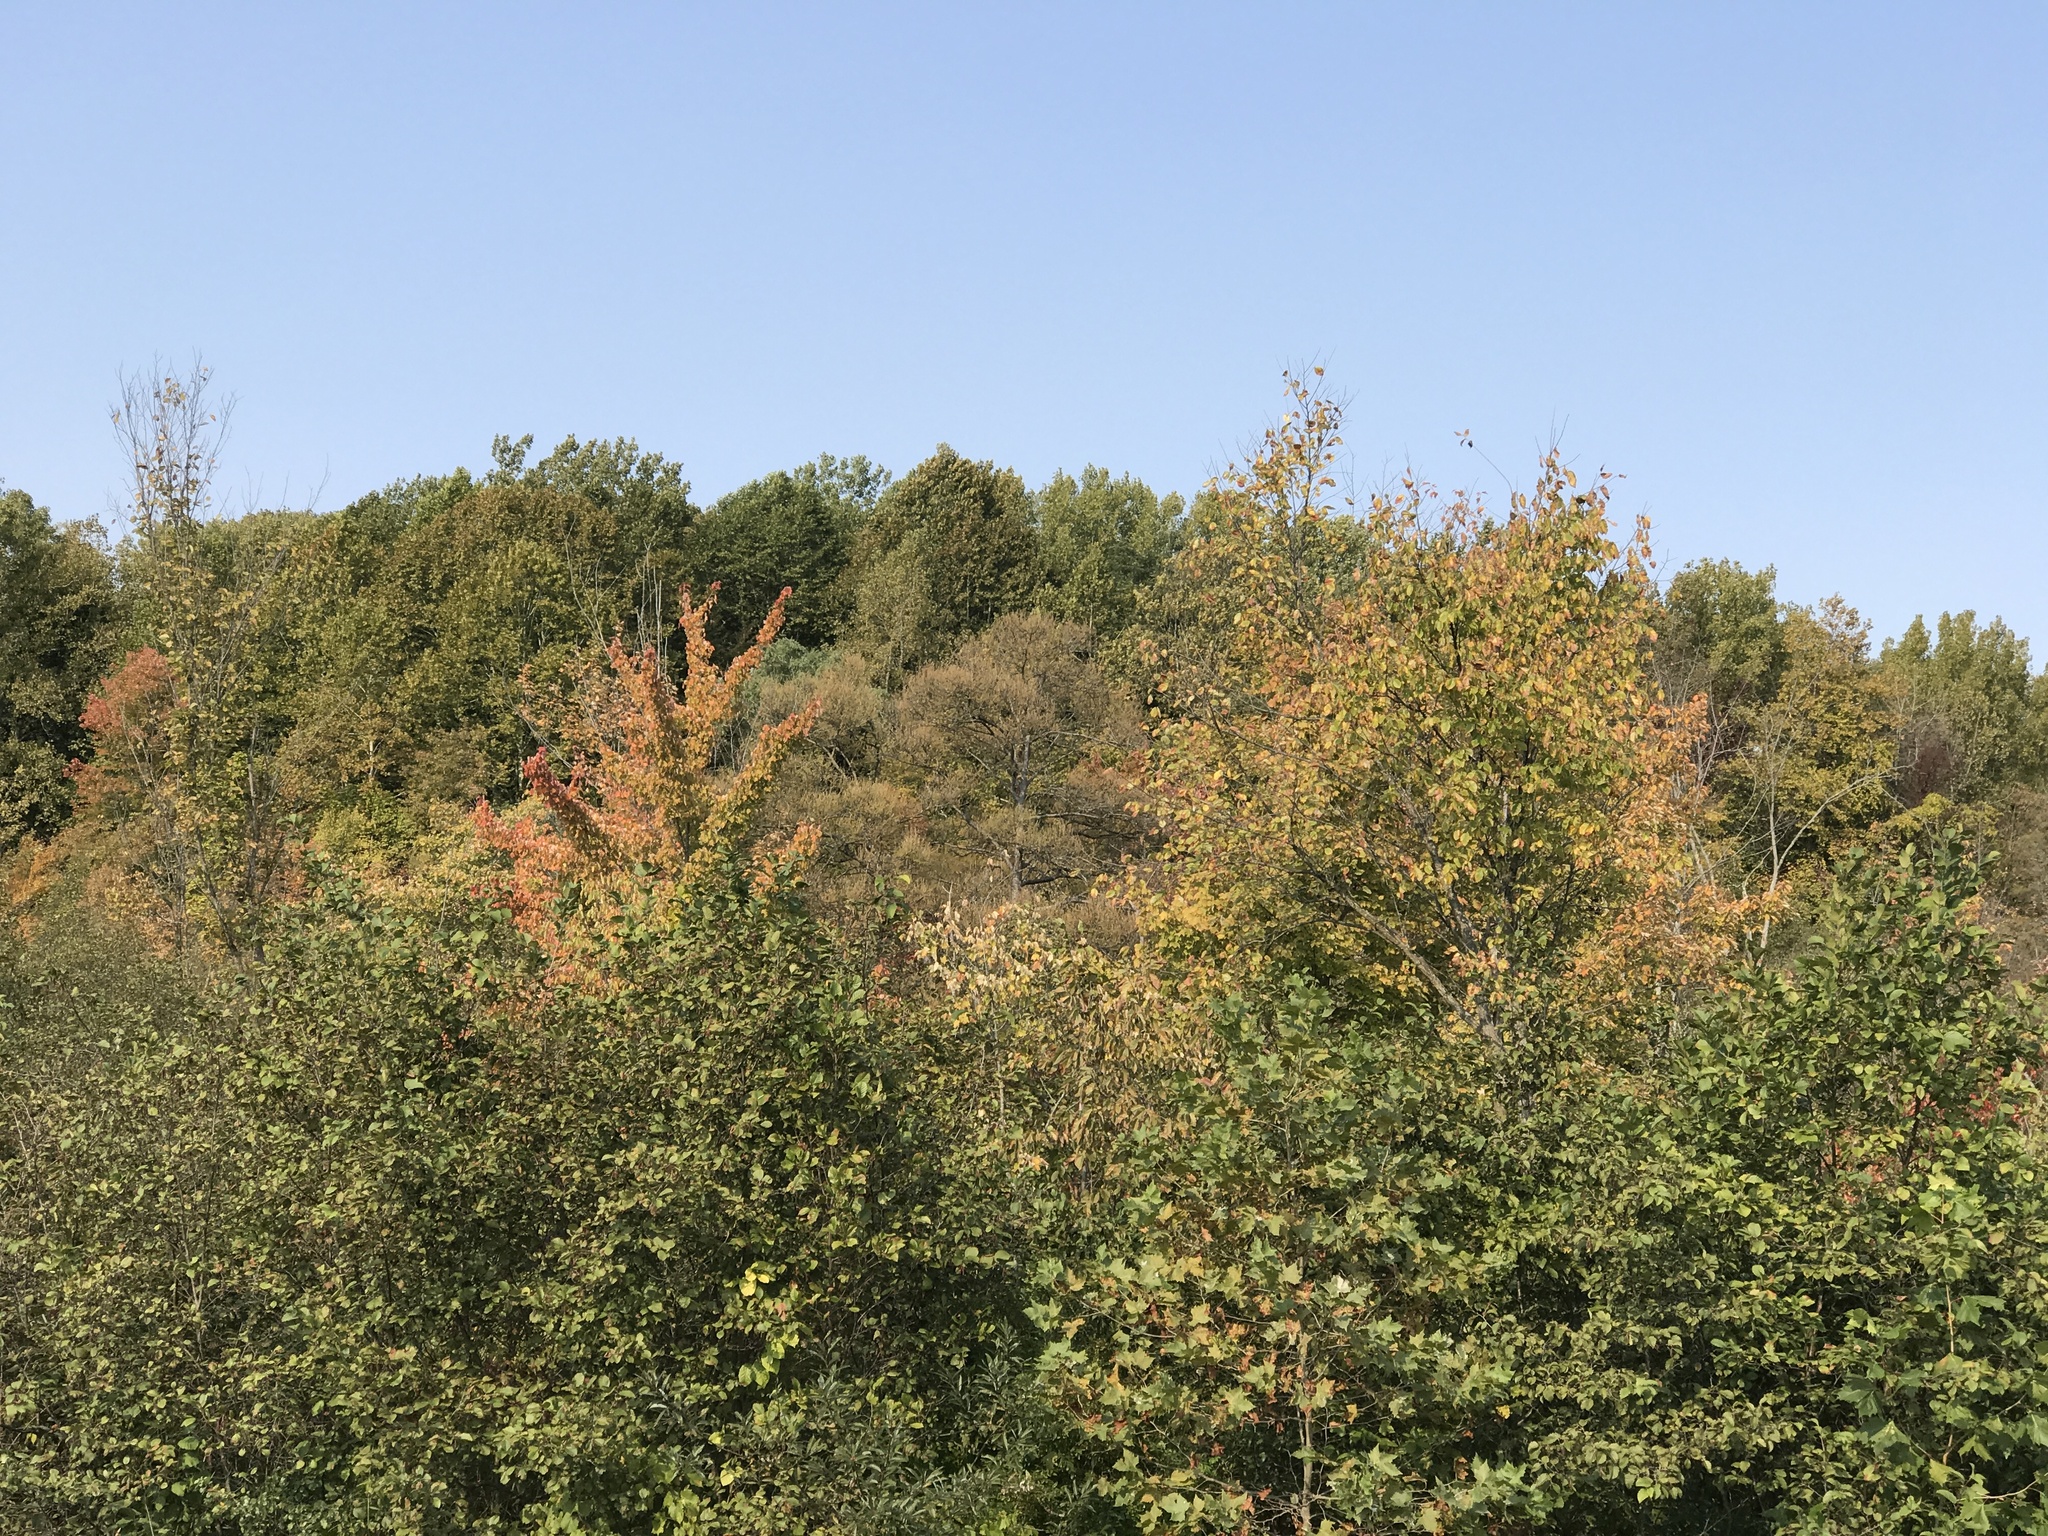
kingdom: Plantae
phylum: Tracheophyta
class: Pinopsida
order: Pinales
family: Pinaceae
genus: Larix
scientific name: Larix laricina
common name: American larch
